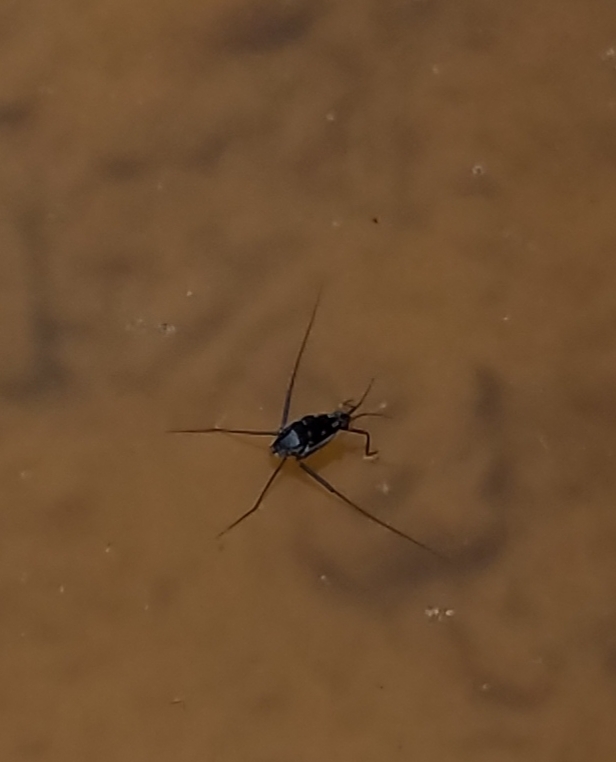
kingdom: Animalia
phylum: Arthropoda
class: Insecta
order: Hemiptera
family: Gerridae
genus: Trepobates
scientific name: Trepobates subnitidus
